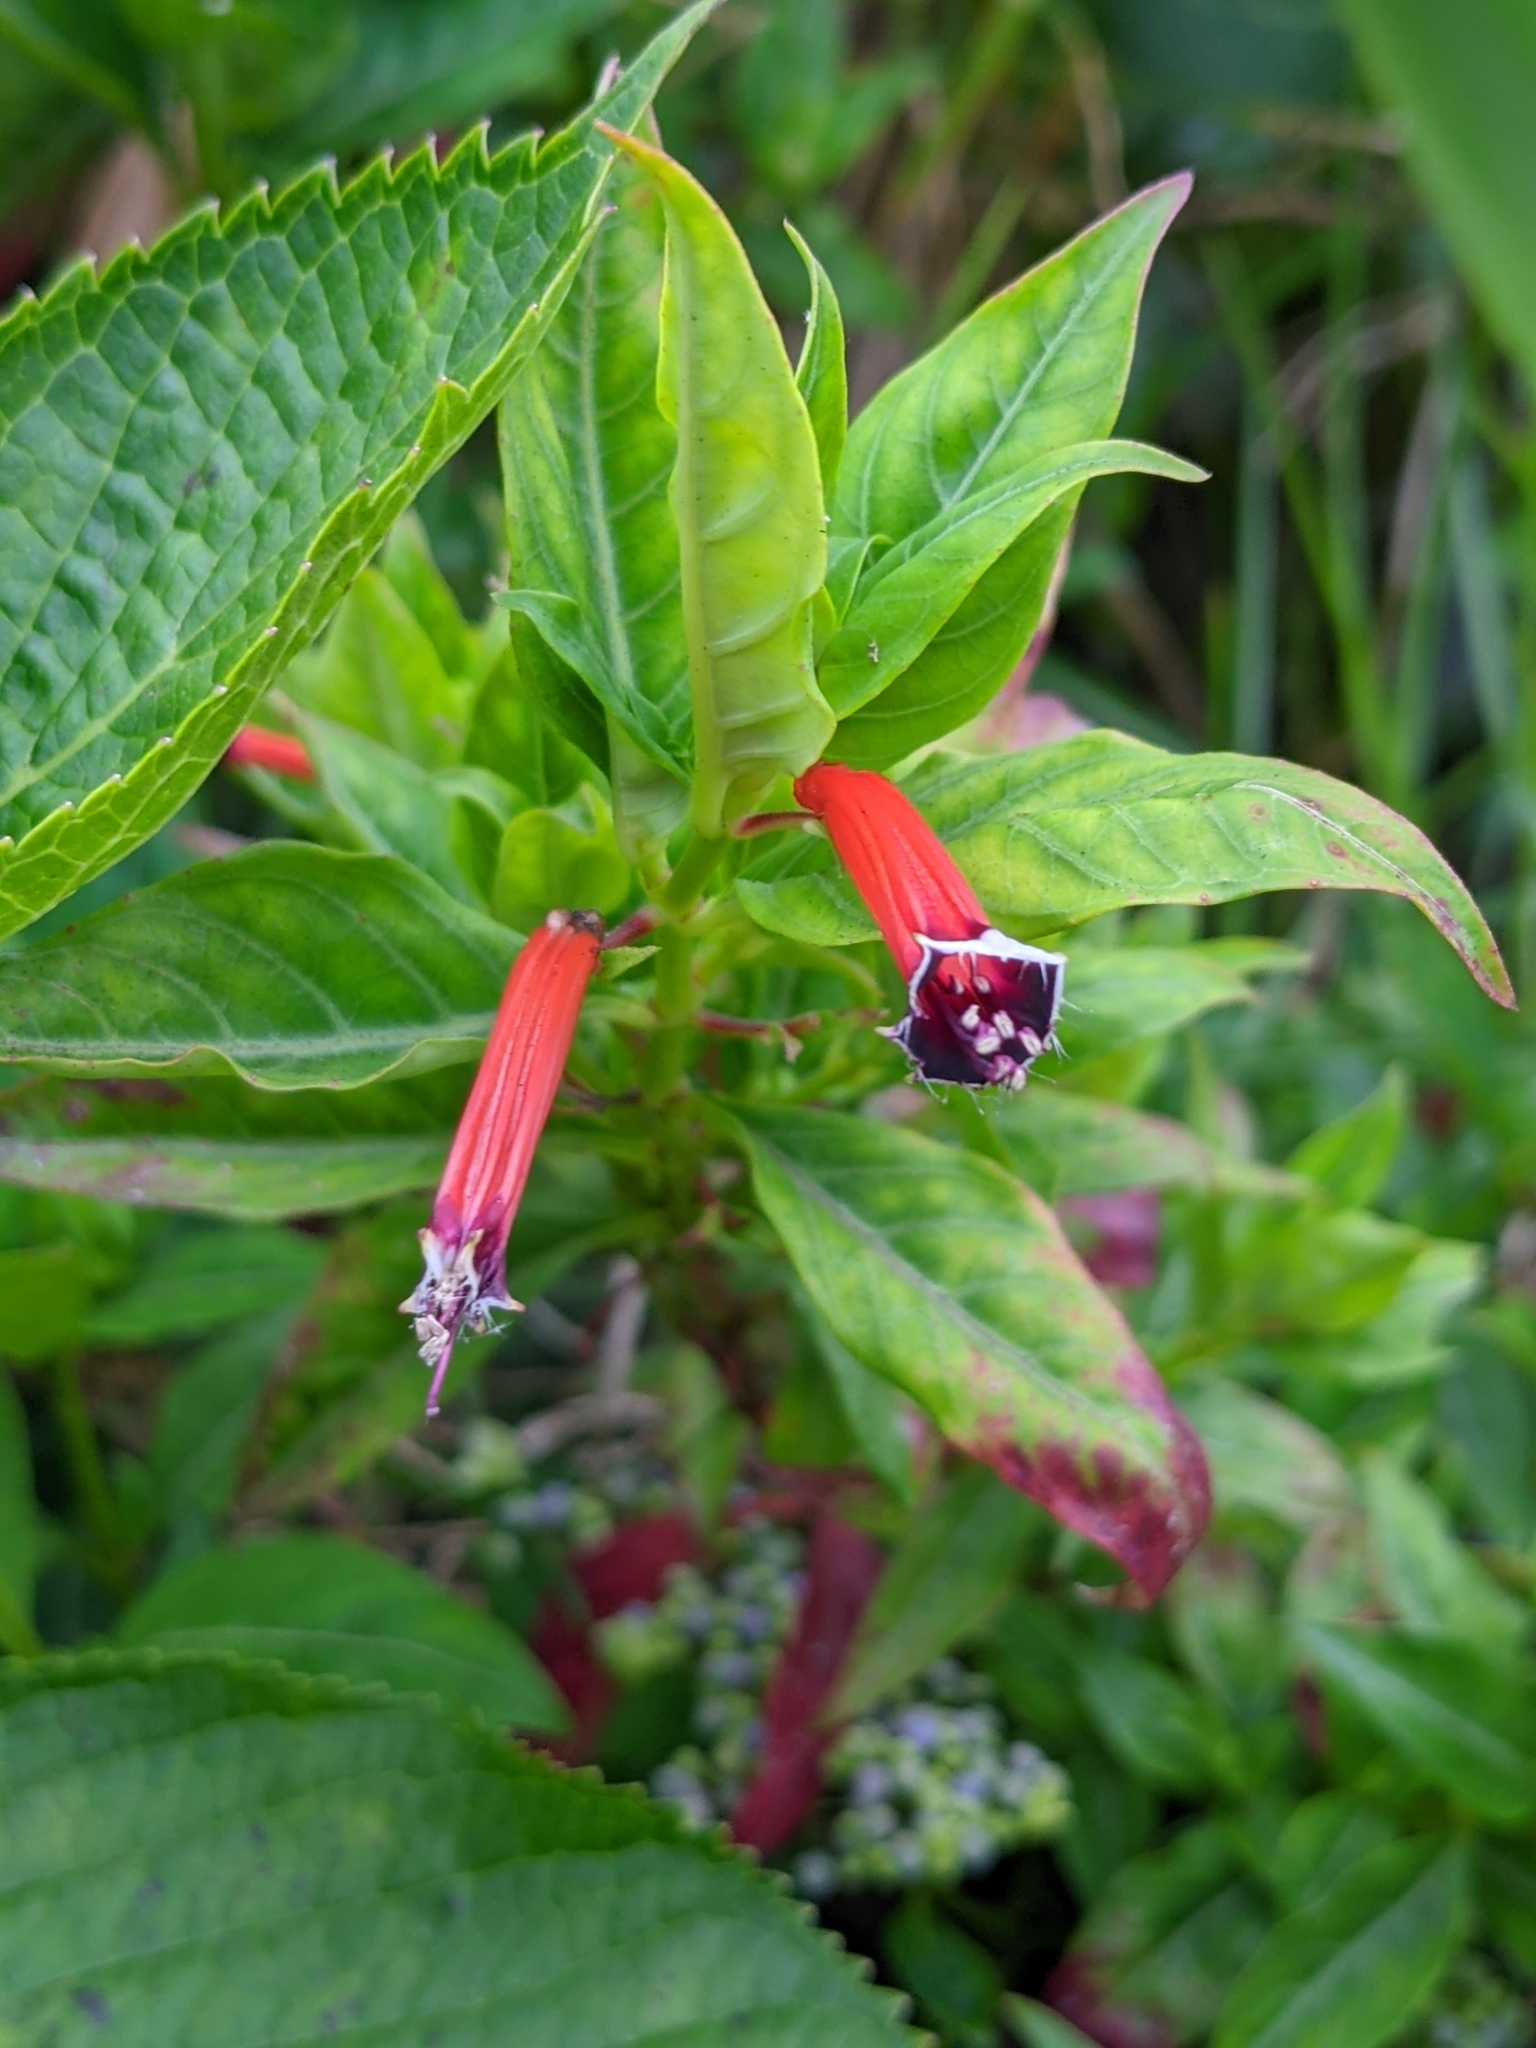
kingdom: Plantae
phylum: Tracheophyta
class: Magnoliopsida
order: Myrtales
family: Lythraceae
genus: Cuphea
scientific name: Cuphea ignea
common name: Cigar flower
